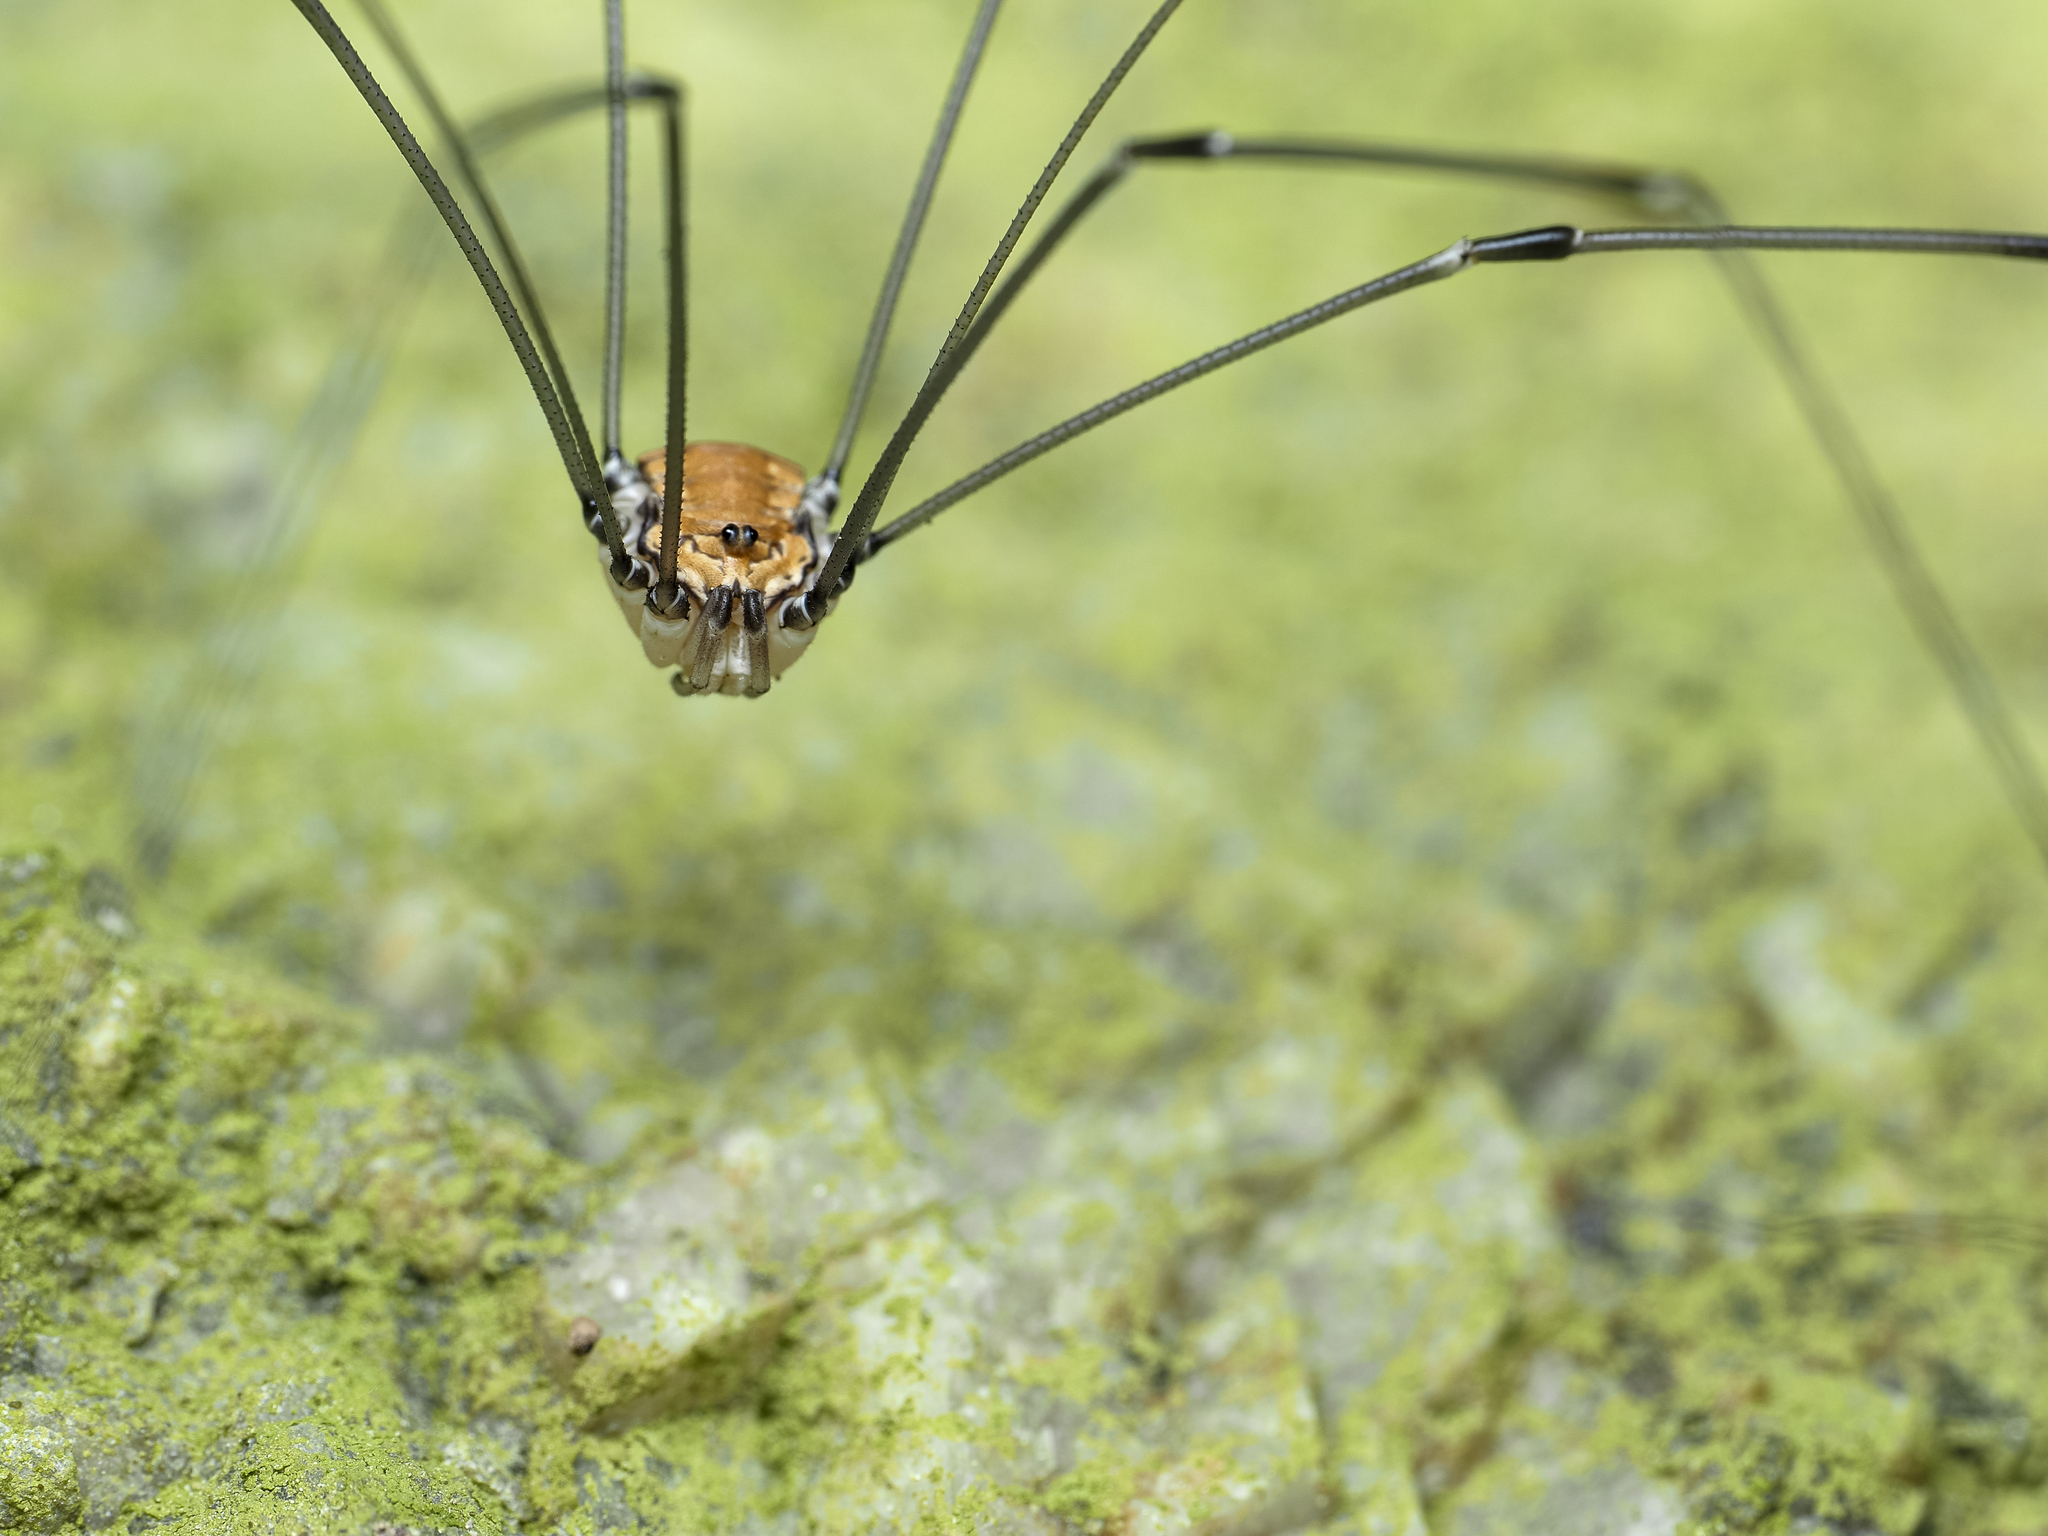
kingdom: Animalia
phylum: Arthropoda
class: Arachnida
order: Opiliones
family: Sclerosomatidae
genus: Leiobunum
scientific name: Leiobunum limbatum
